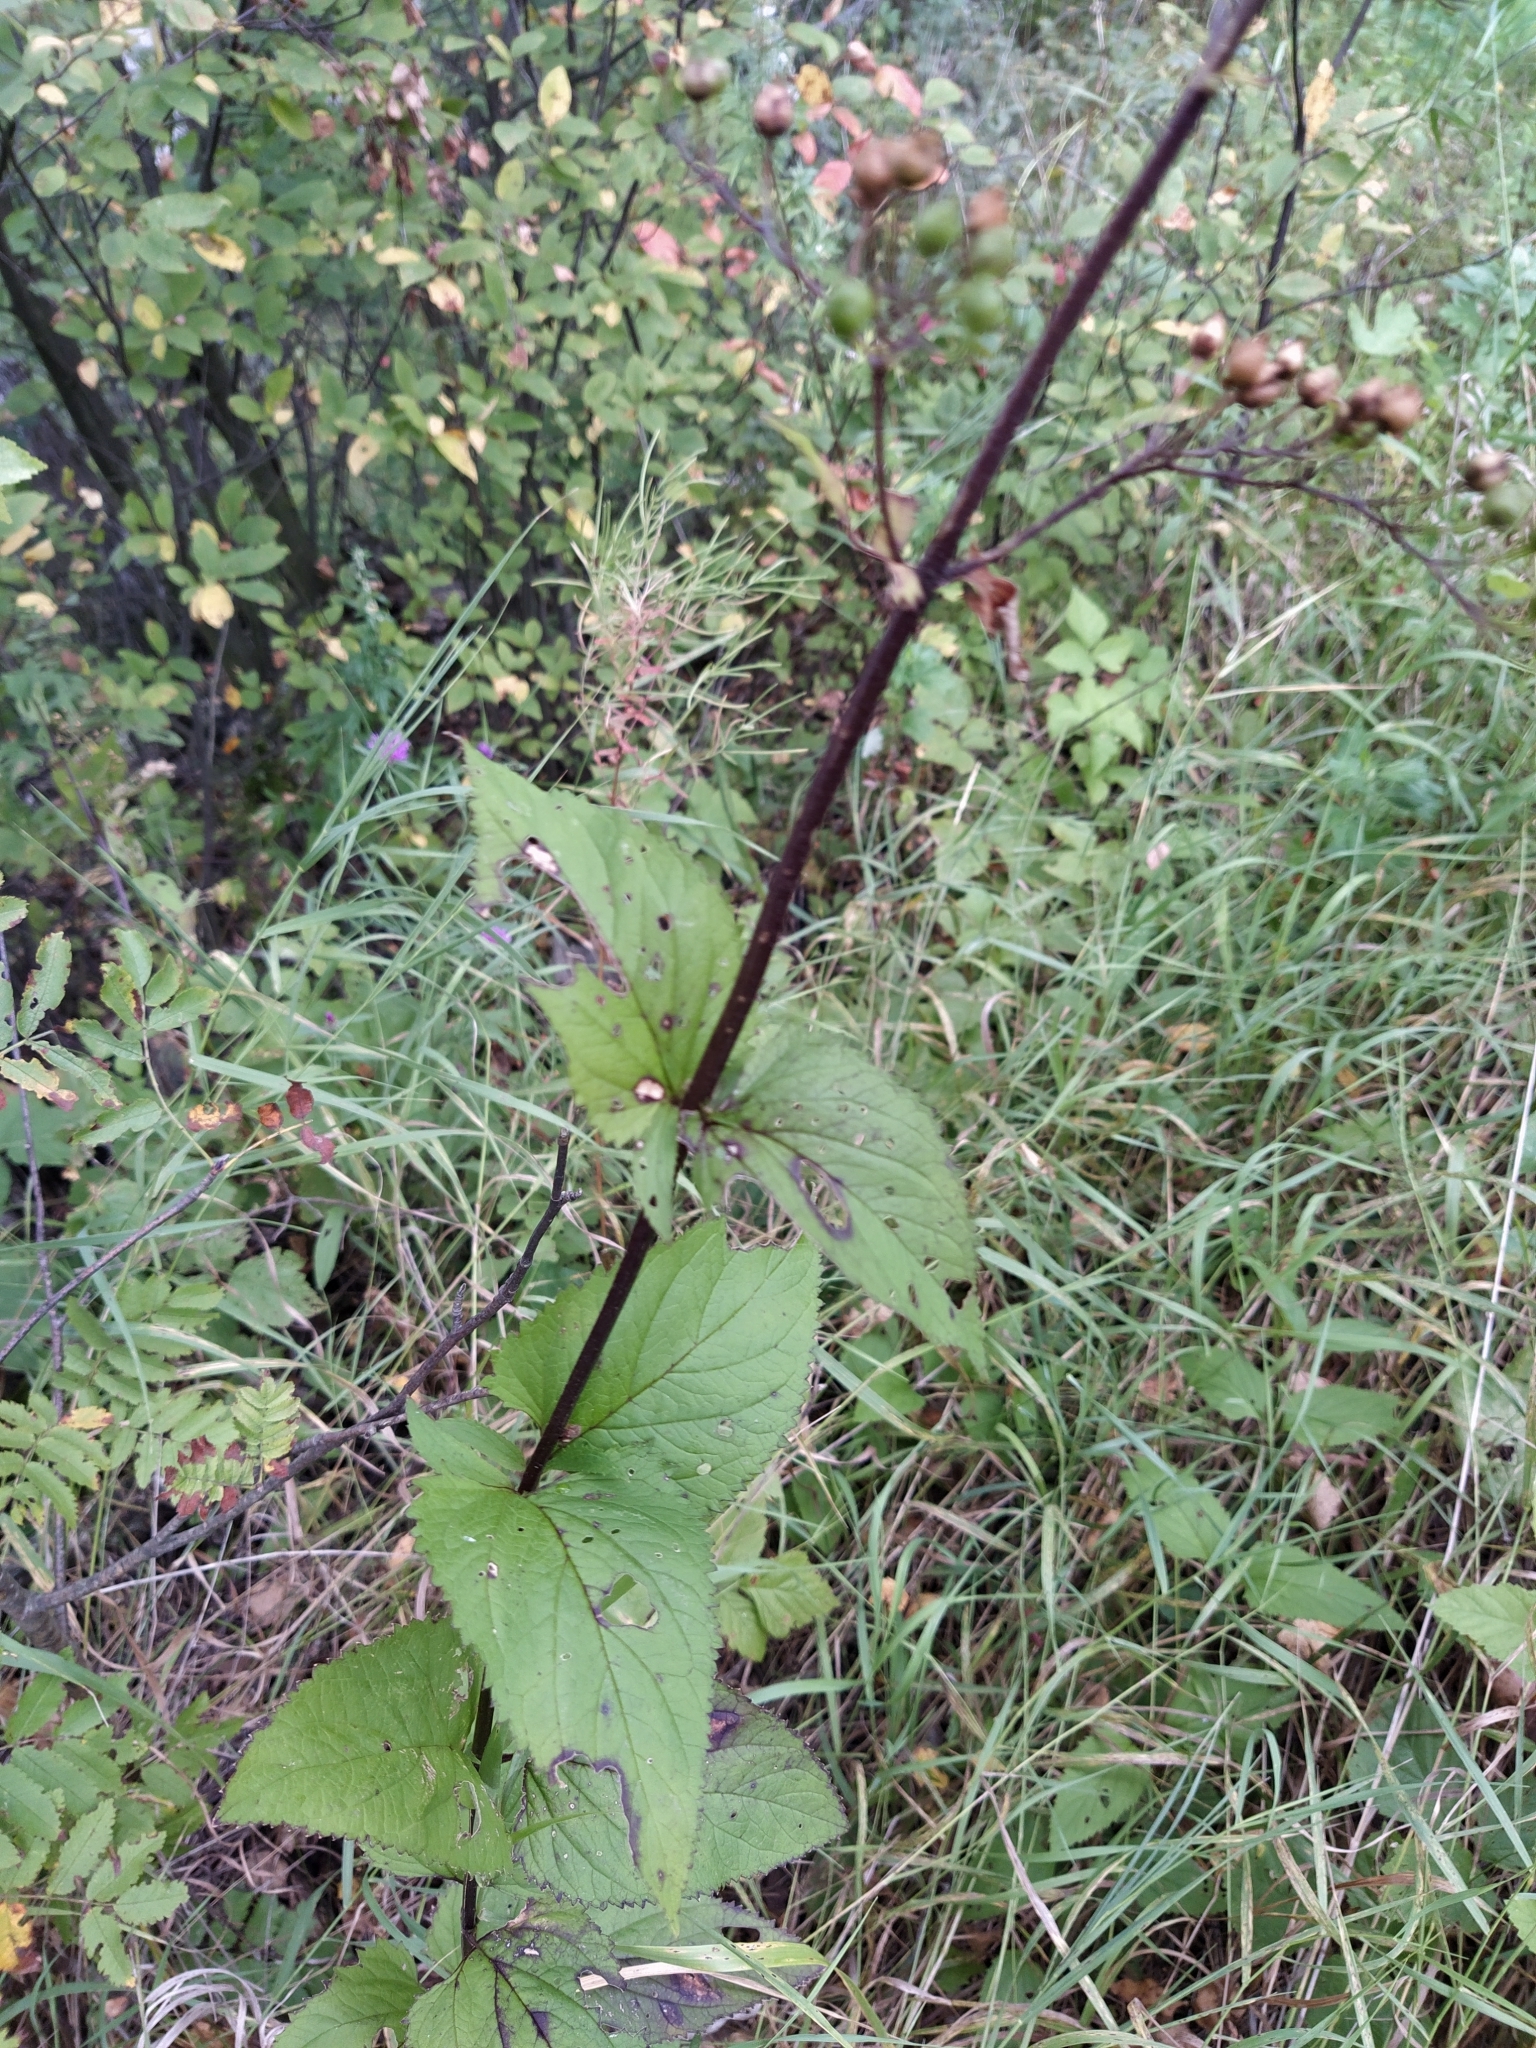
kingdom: Plantae
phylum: Tracheophyta
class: Magnoliopsida
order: Lamiales
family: Scrophulariaceae
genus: Scrophularia
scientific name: Scrophularia nodosa
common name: Common figwort
